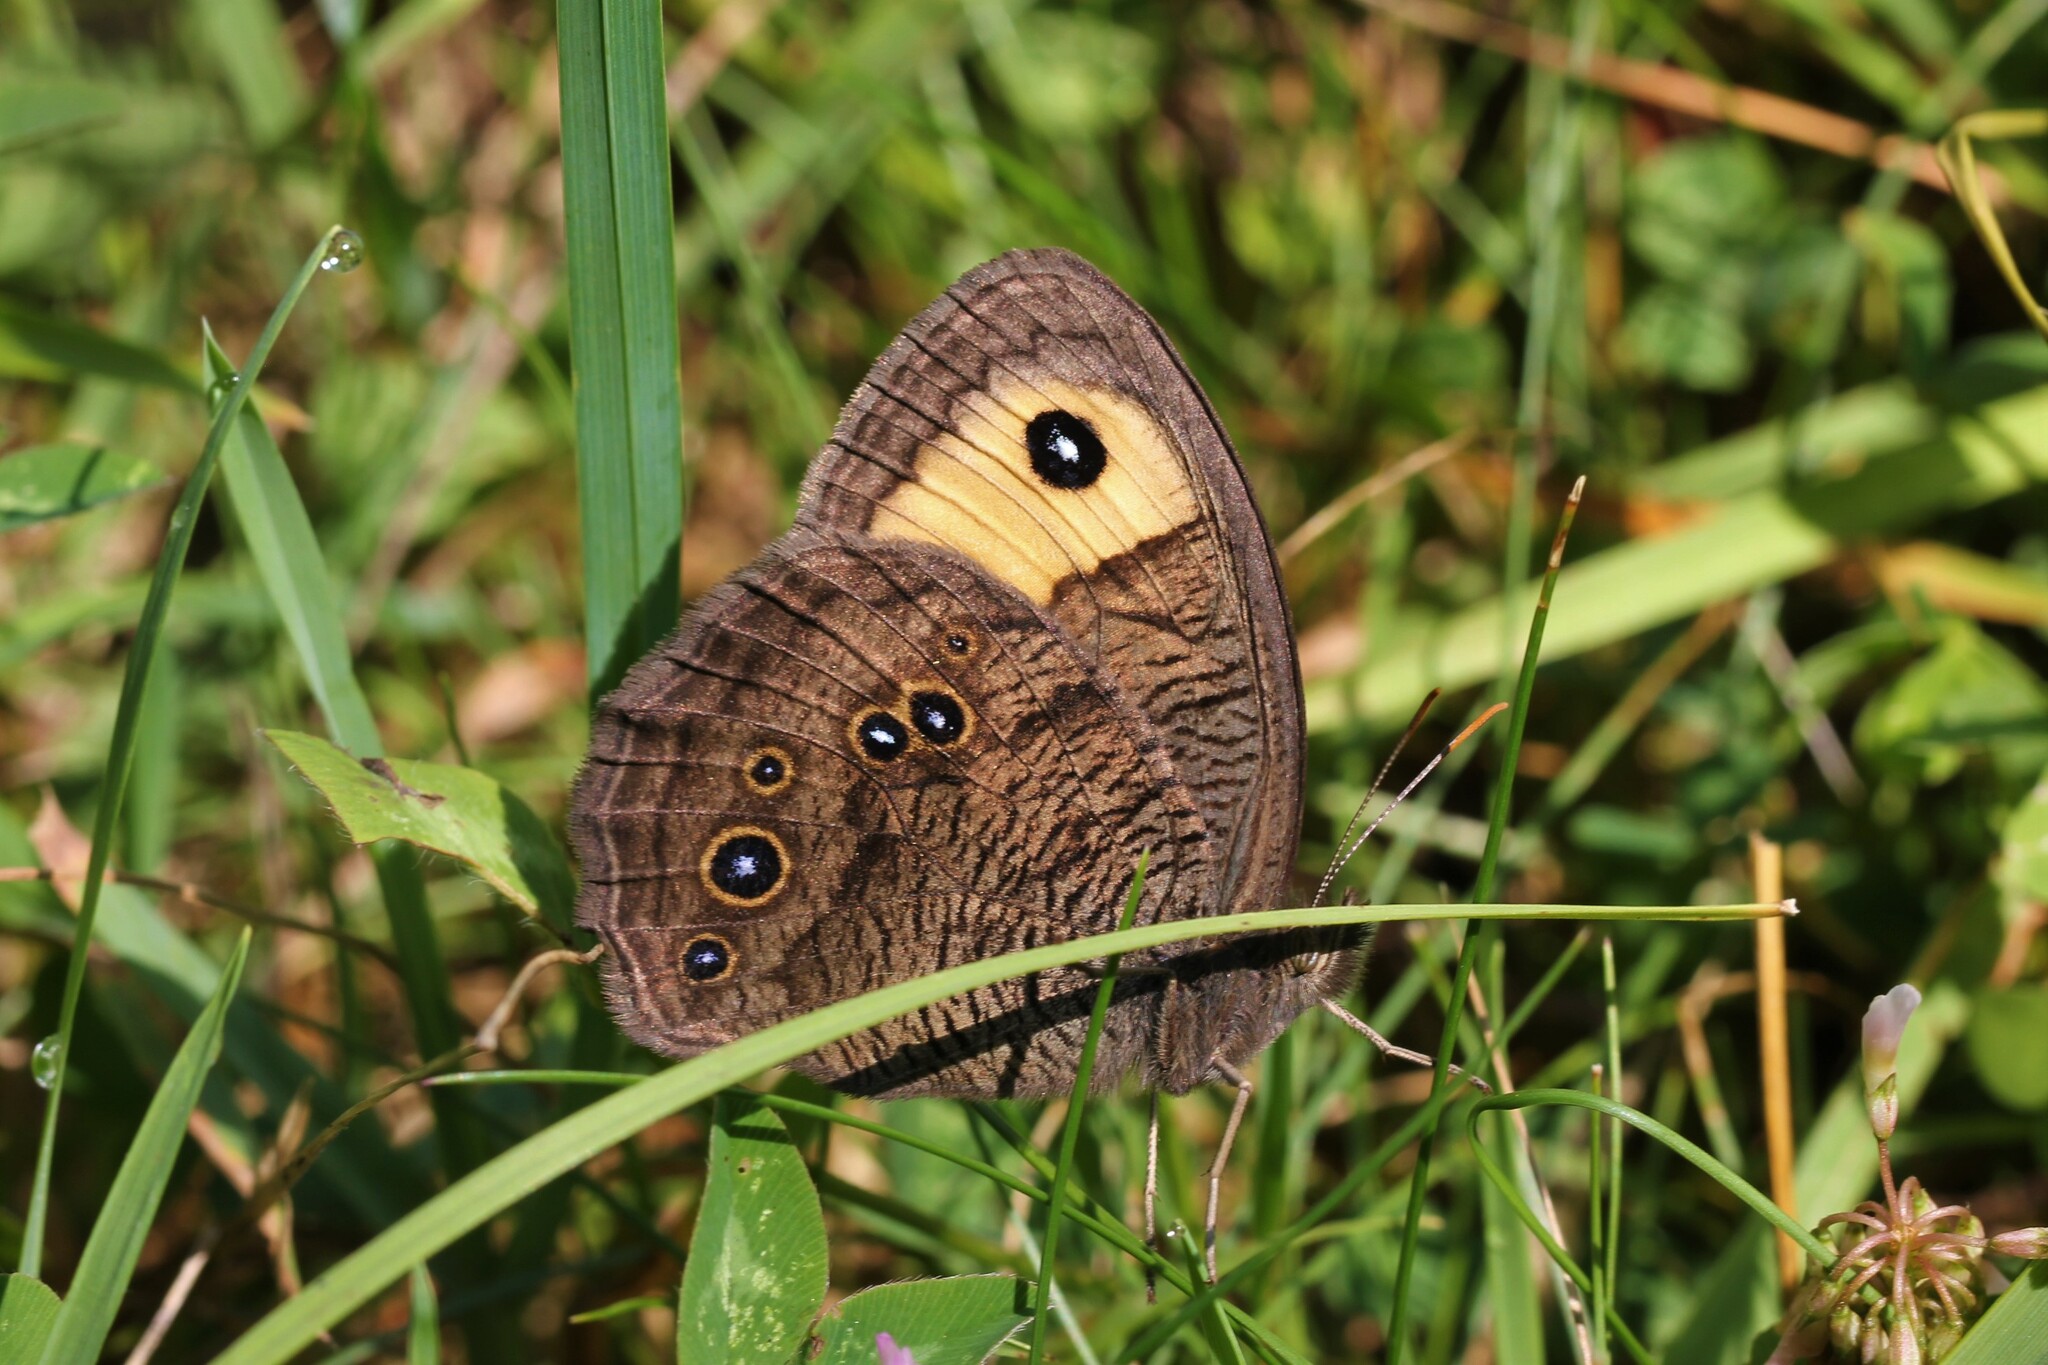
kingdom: Animalia
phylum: Arthropoda
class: Insecta
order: Lepidoptera
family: Nymphalidae
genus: Cercyonis
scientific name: Cercyonis pegala
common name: Common wood-nymph
